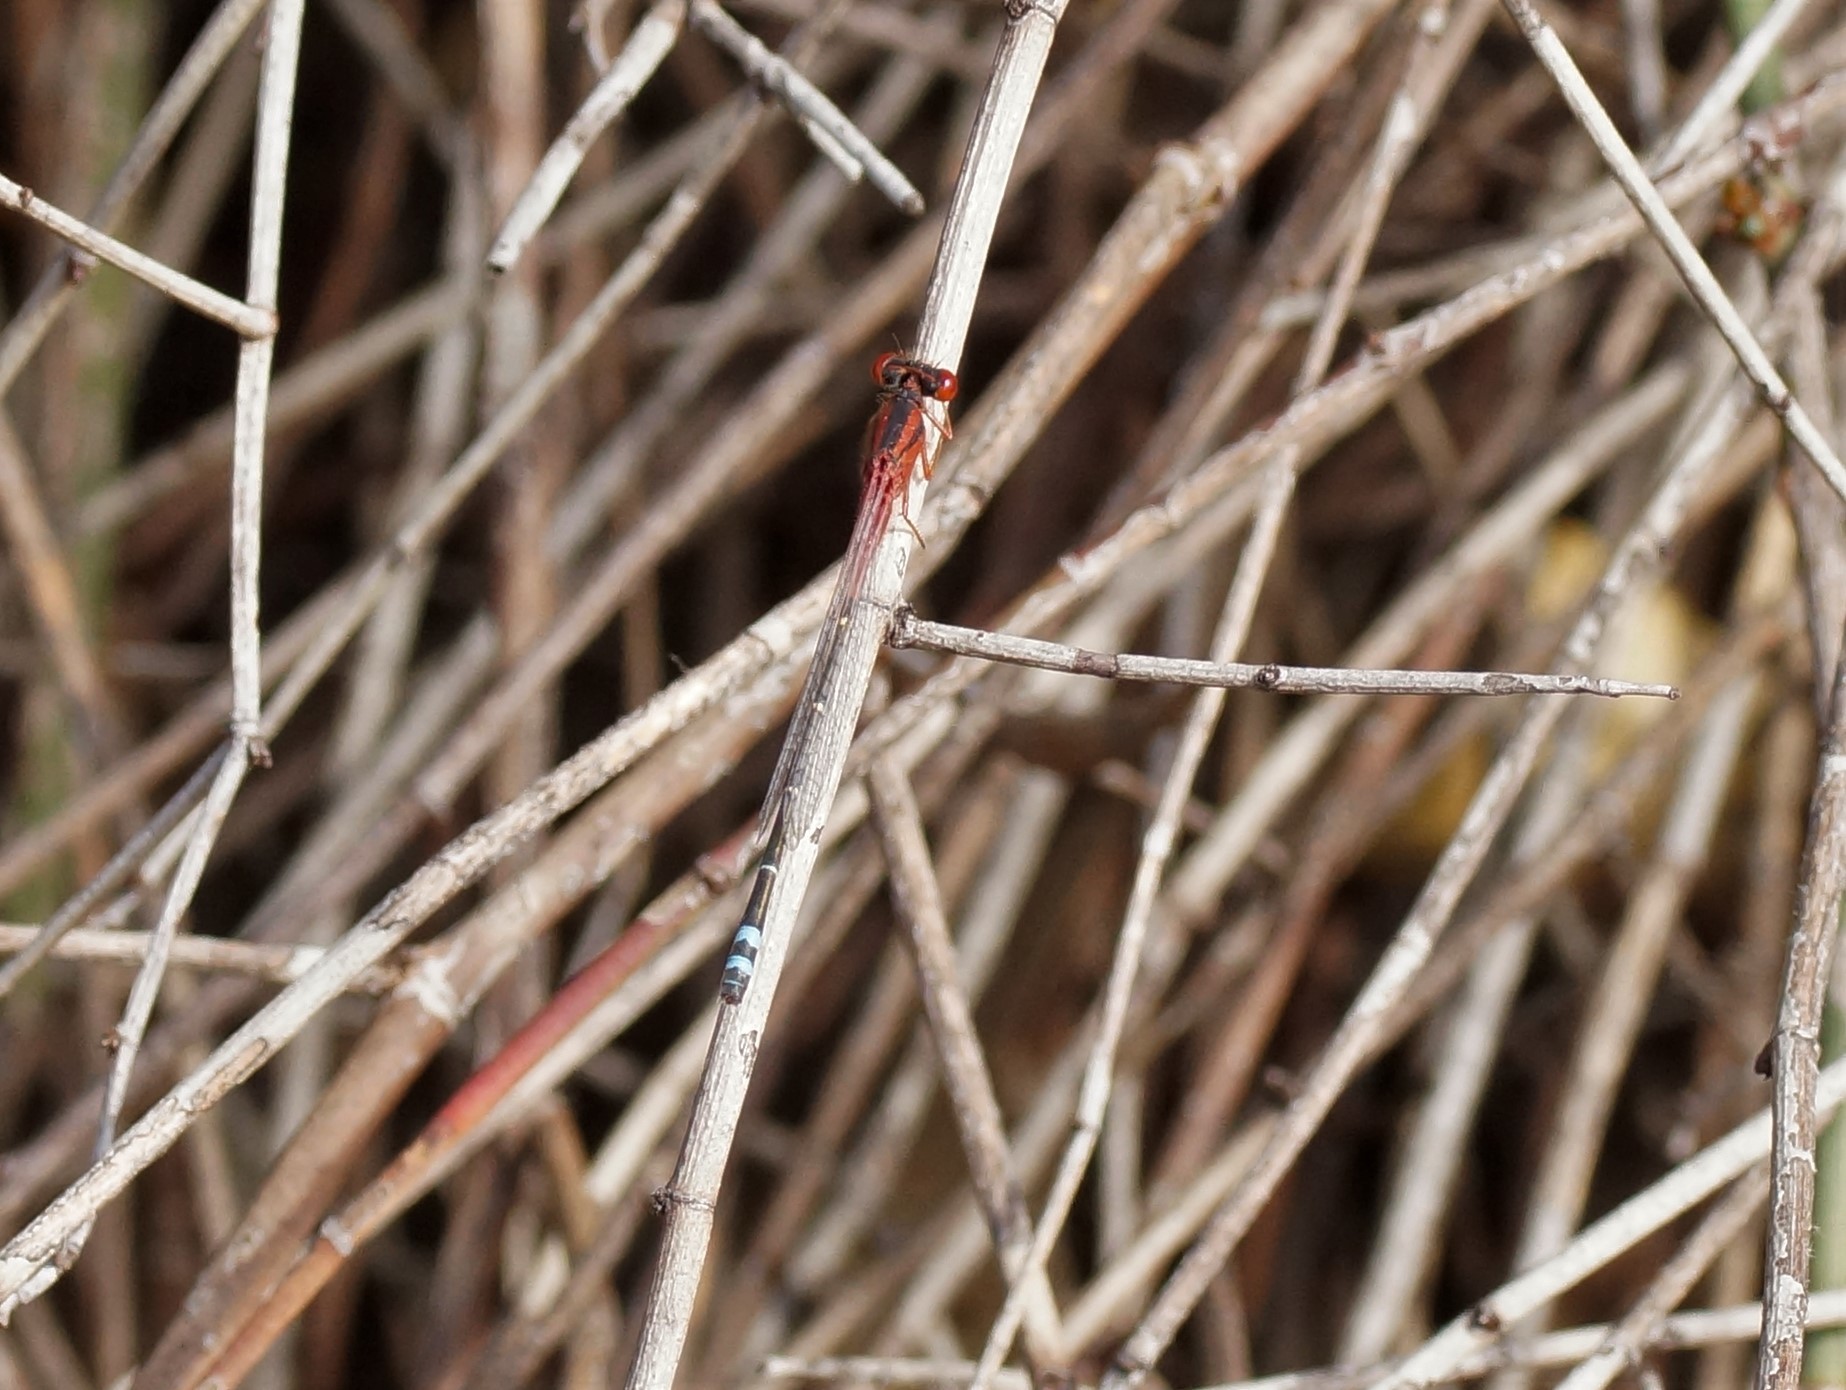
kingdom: Animalia
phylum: Arthropoda
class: Insecta
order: Odonata
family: Coenagrionidae
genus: Xanthagrion
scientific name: Xanthagrion erythroneurum
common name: Red and blue damsel
